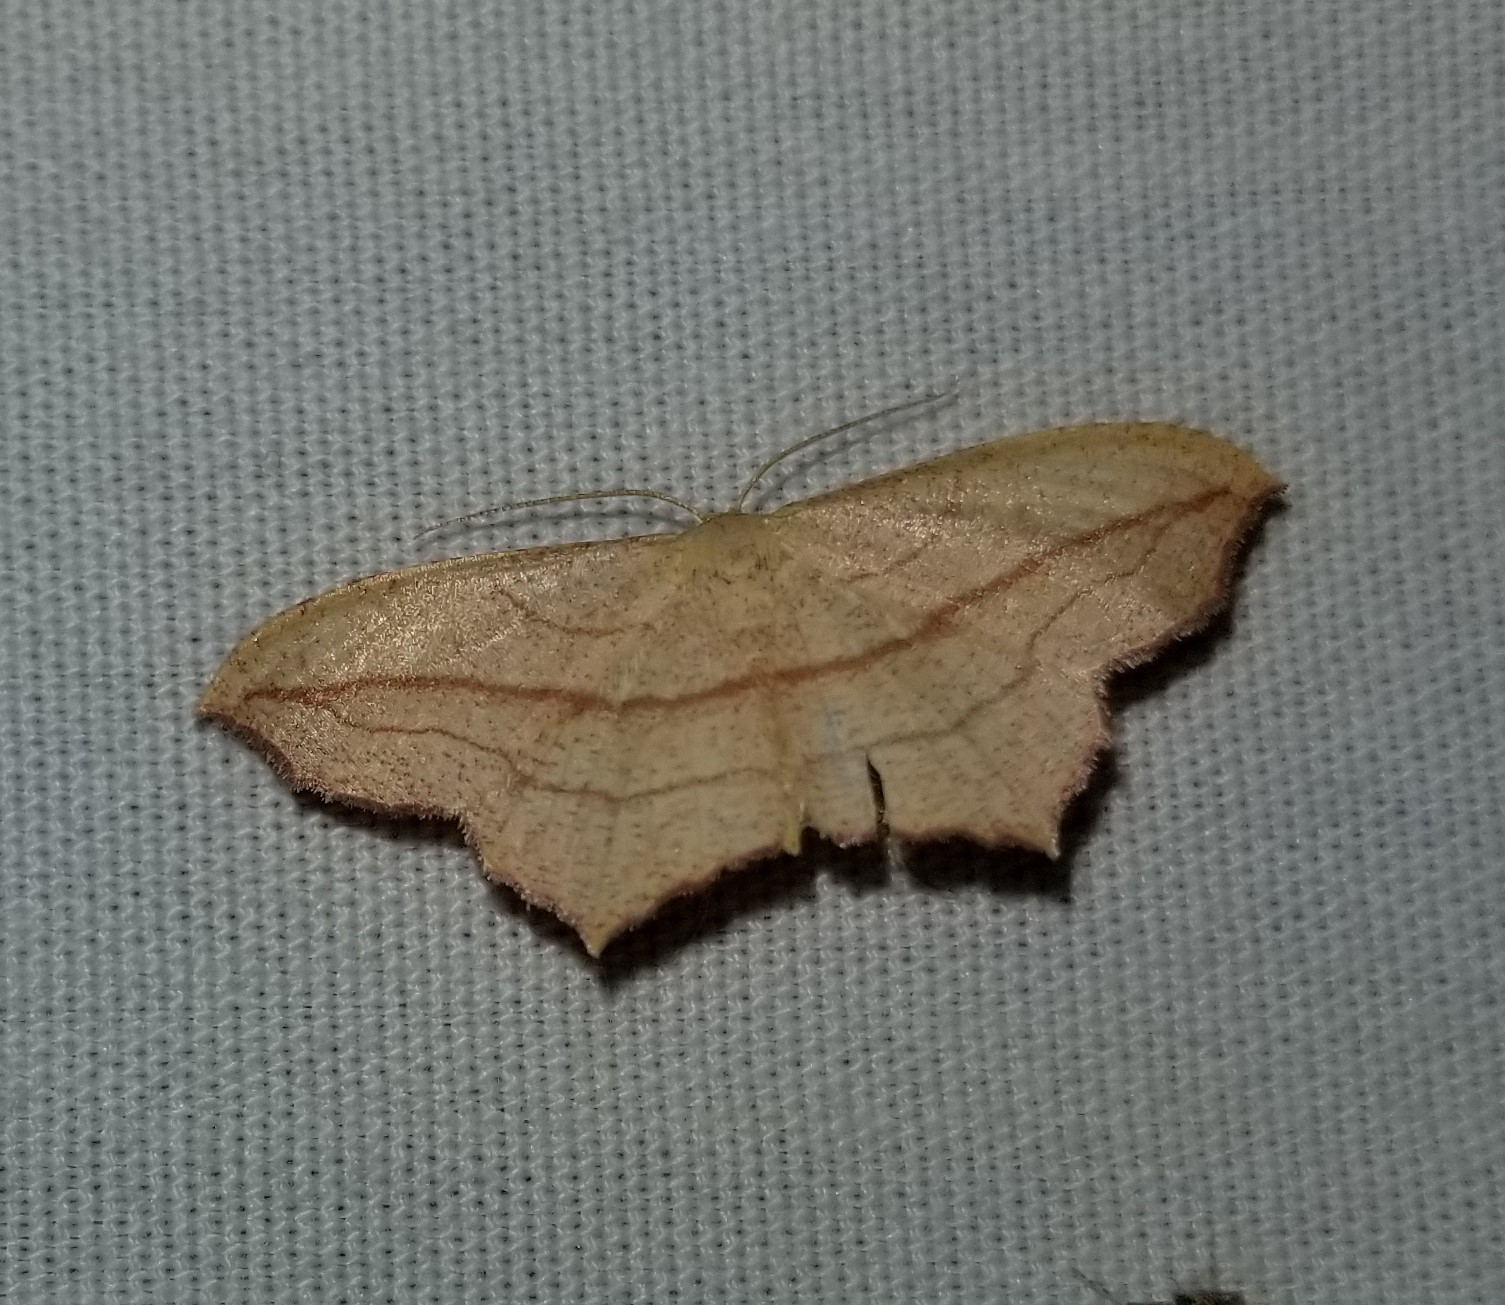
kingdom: Animalia
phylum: Arthropoda
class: Insecta
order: Lepidoptera
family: Geometridae
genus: Timandra
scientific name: Timandra amaturaria
